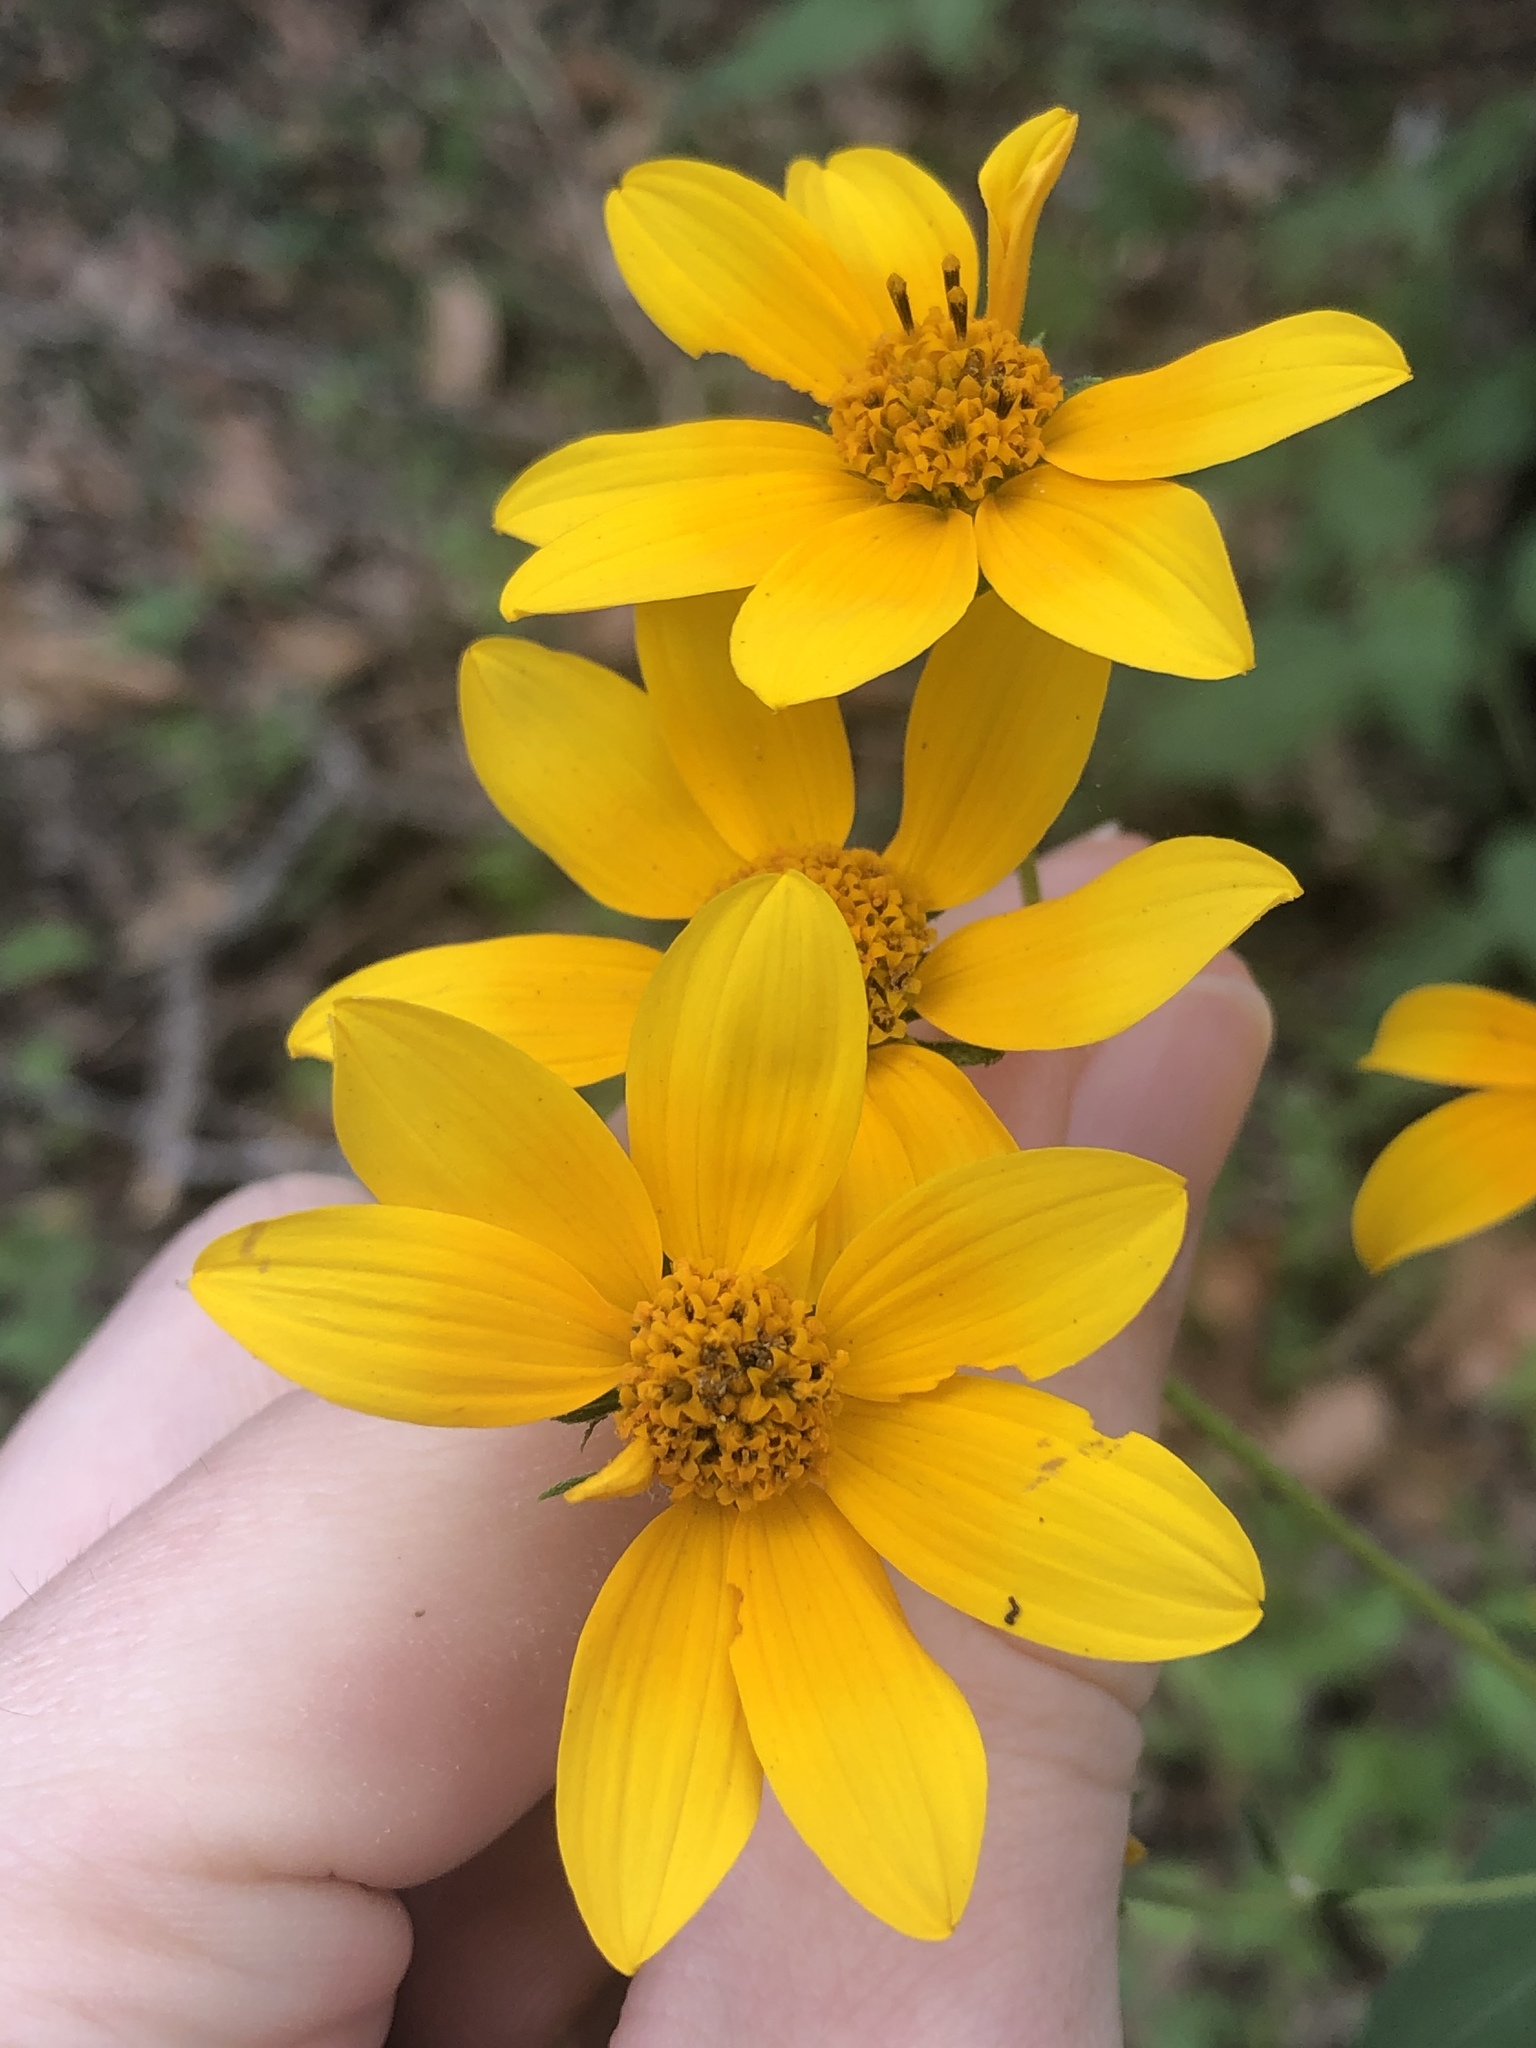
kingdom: Plantae
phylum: Tracheophyta
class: Magnoliopsida
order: Asterales
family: Asteraceae
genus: Viguiera
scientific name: Viguiera dentata
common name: Toothleaf
